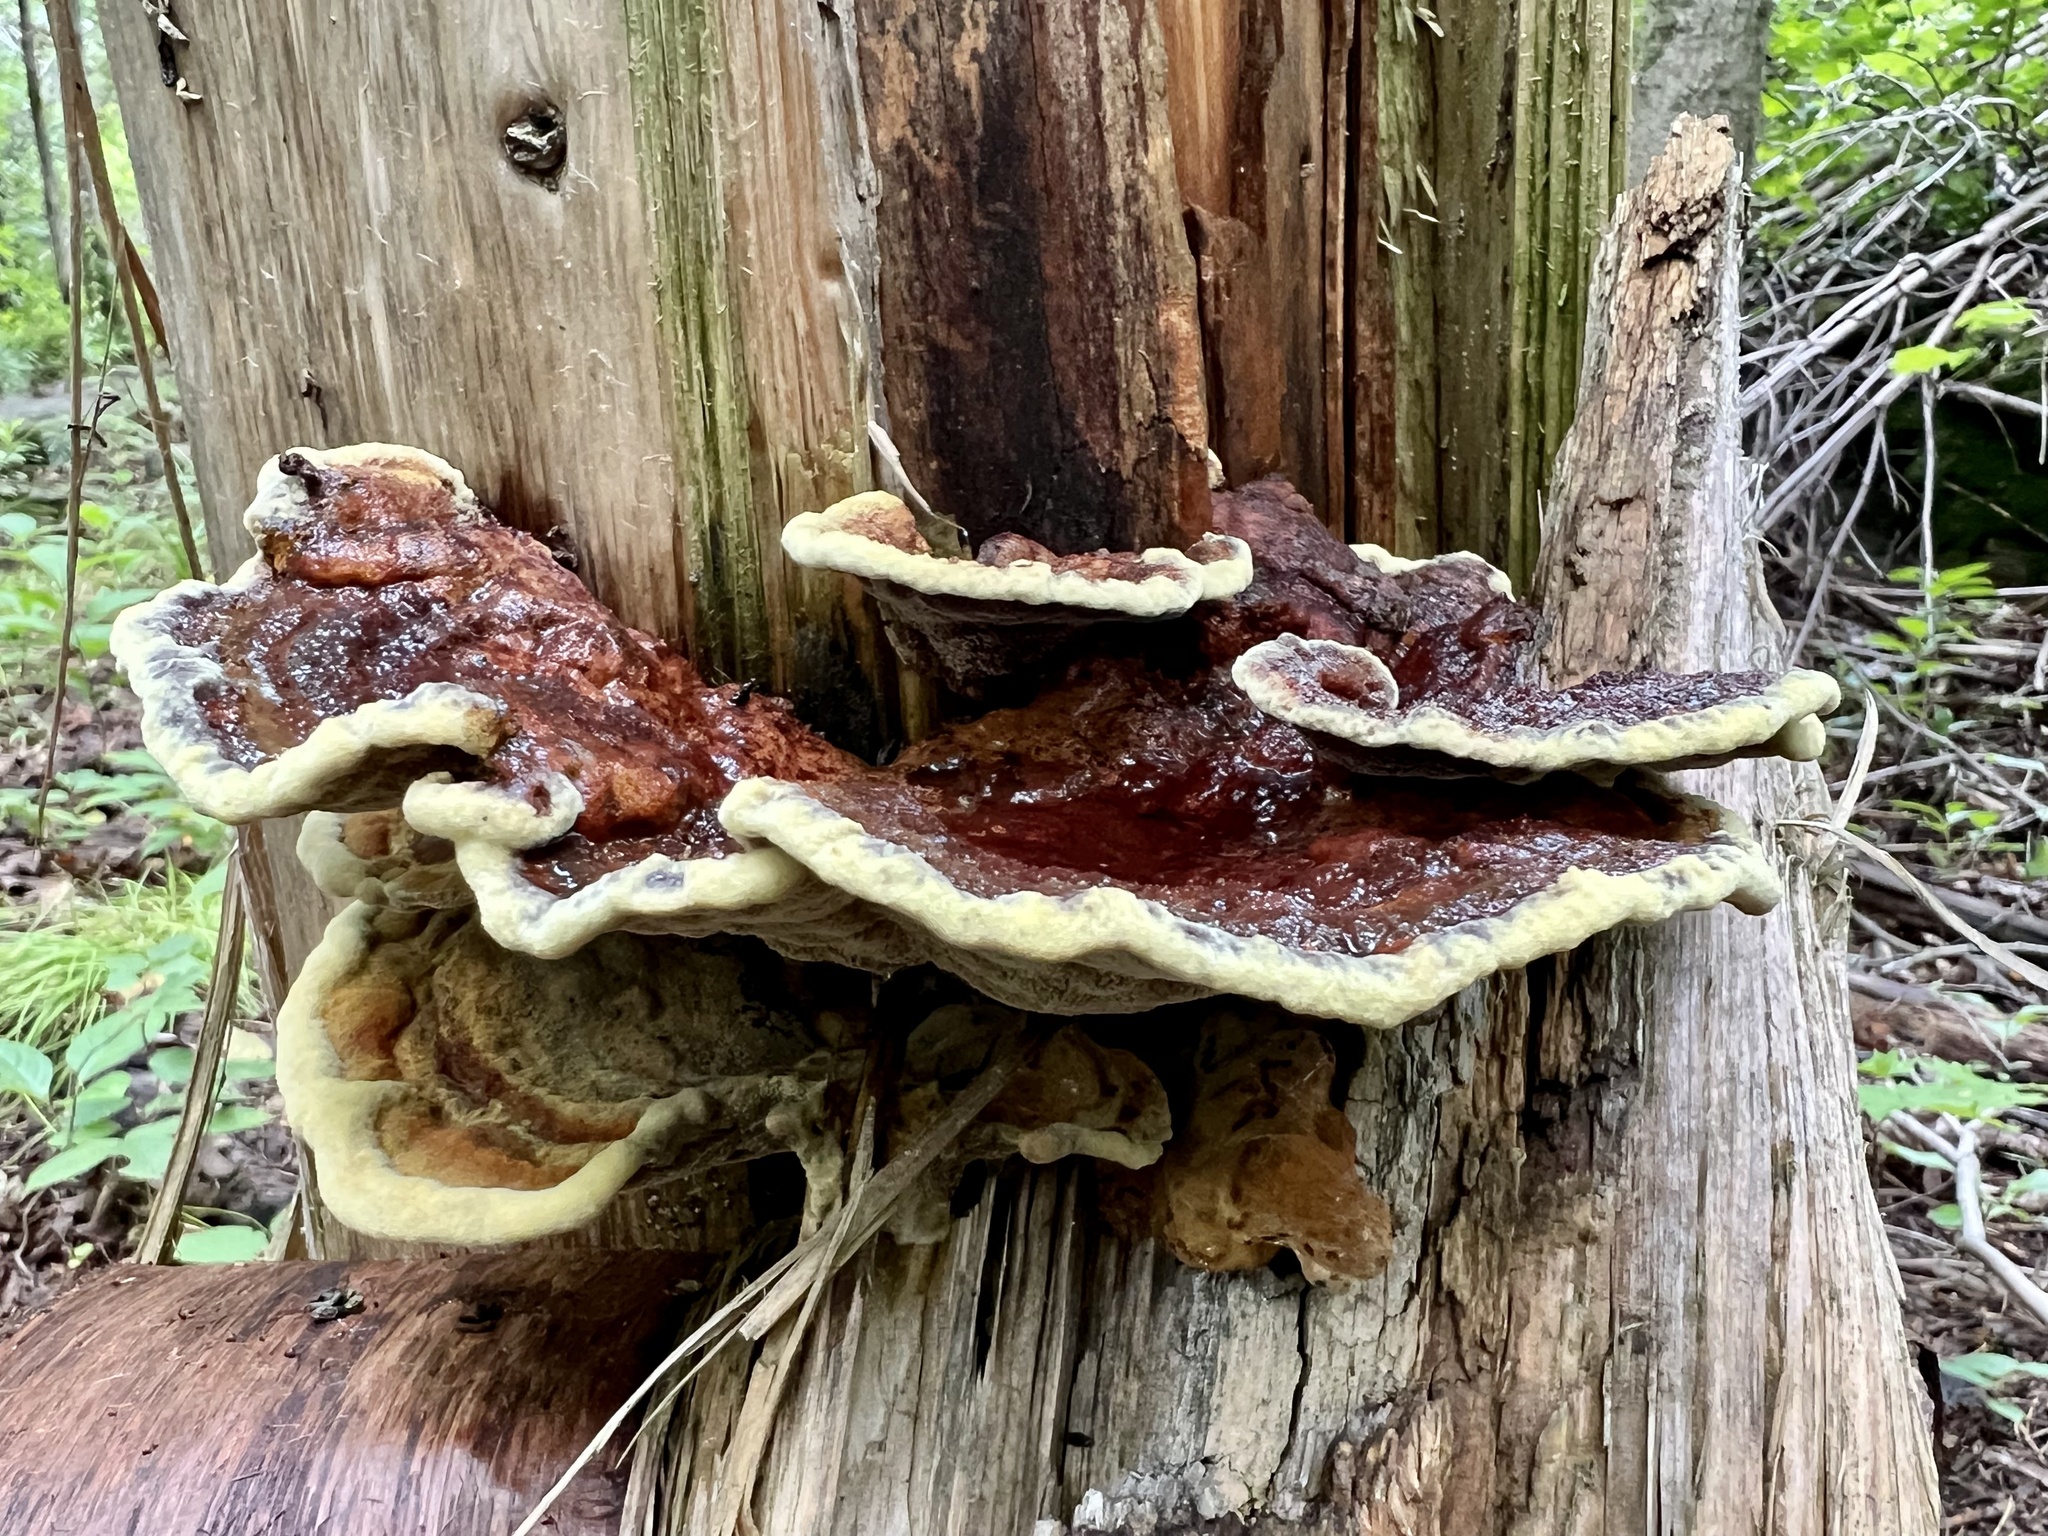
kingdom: Fungi
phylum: Basidiomycota
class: Agaricomycetes
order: Polyporales
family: Laetiporaceae
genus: Phaeolus
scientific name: Phaeolus schweinitzii
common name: Dyer's mazegill
